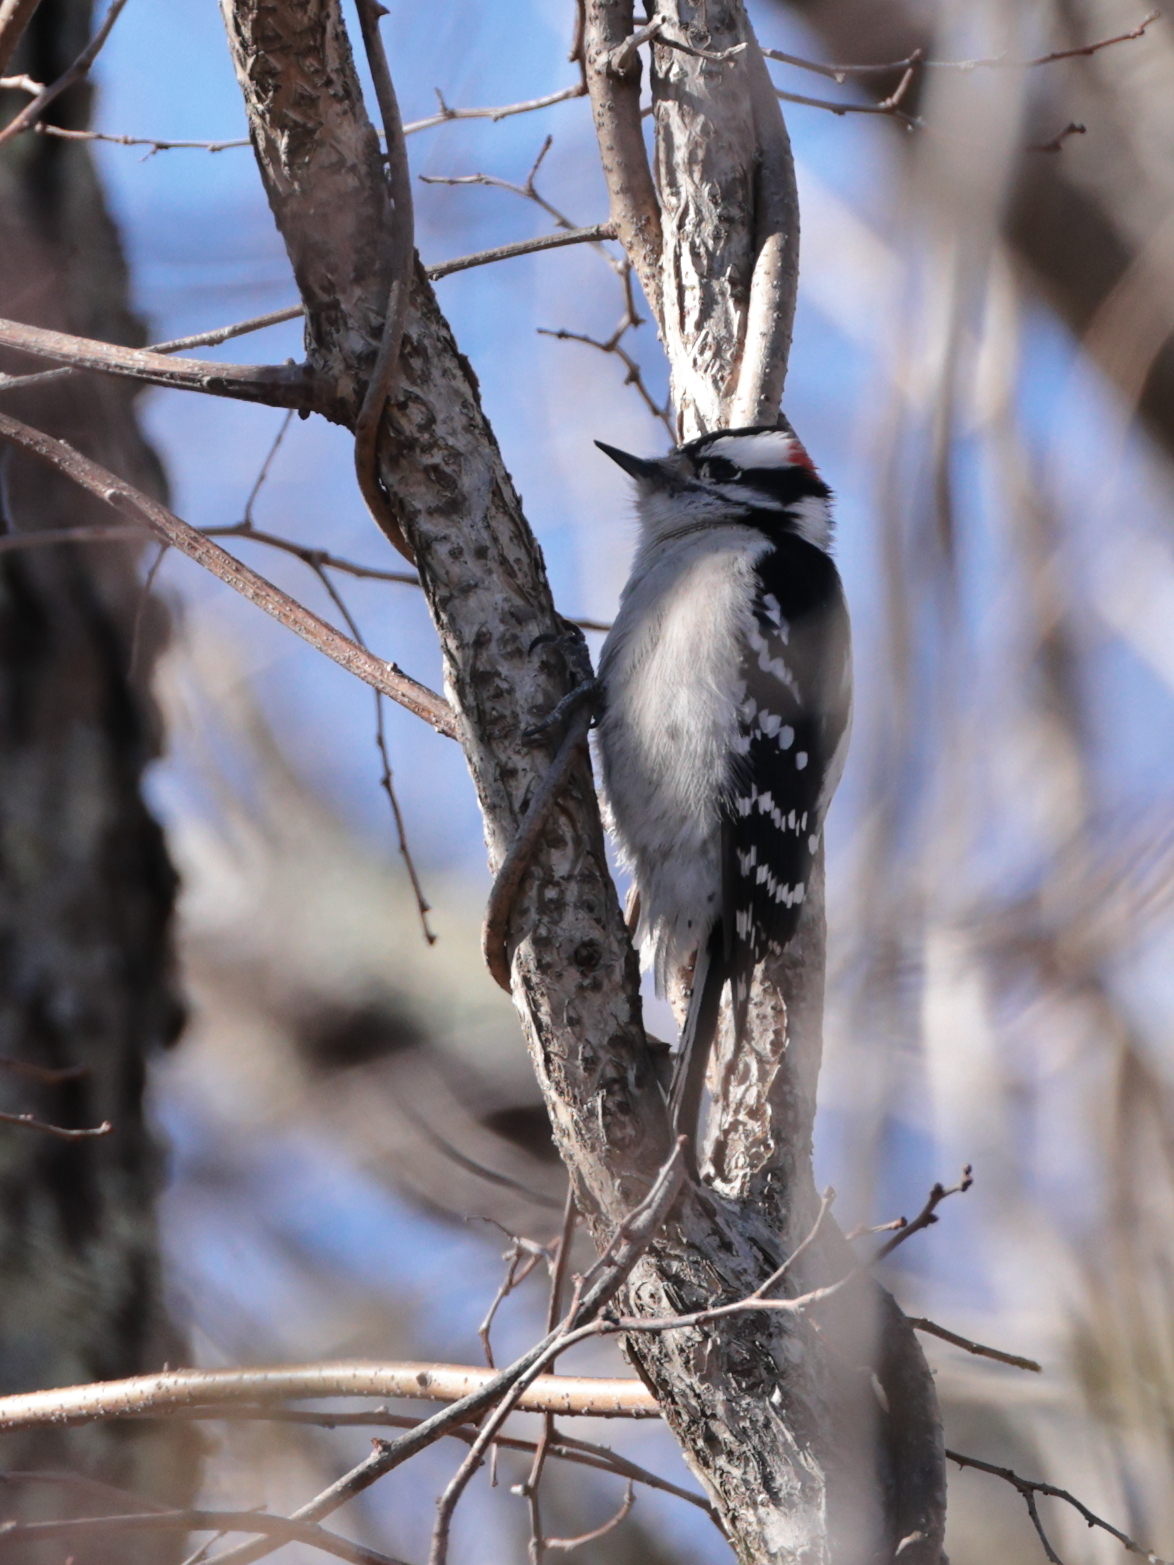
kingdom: Animalia
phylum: Chordata
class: Aves
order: Piciformes
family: Picidae
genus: Dryobates
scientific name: Dryobates pubescens
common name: Downy woodpecker
